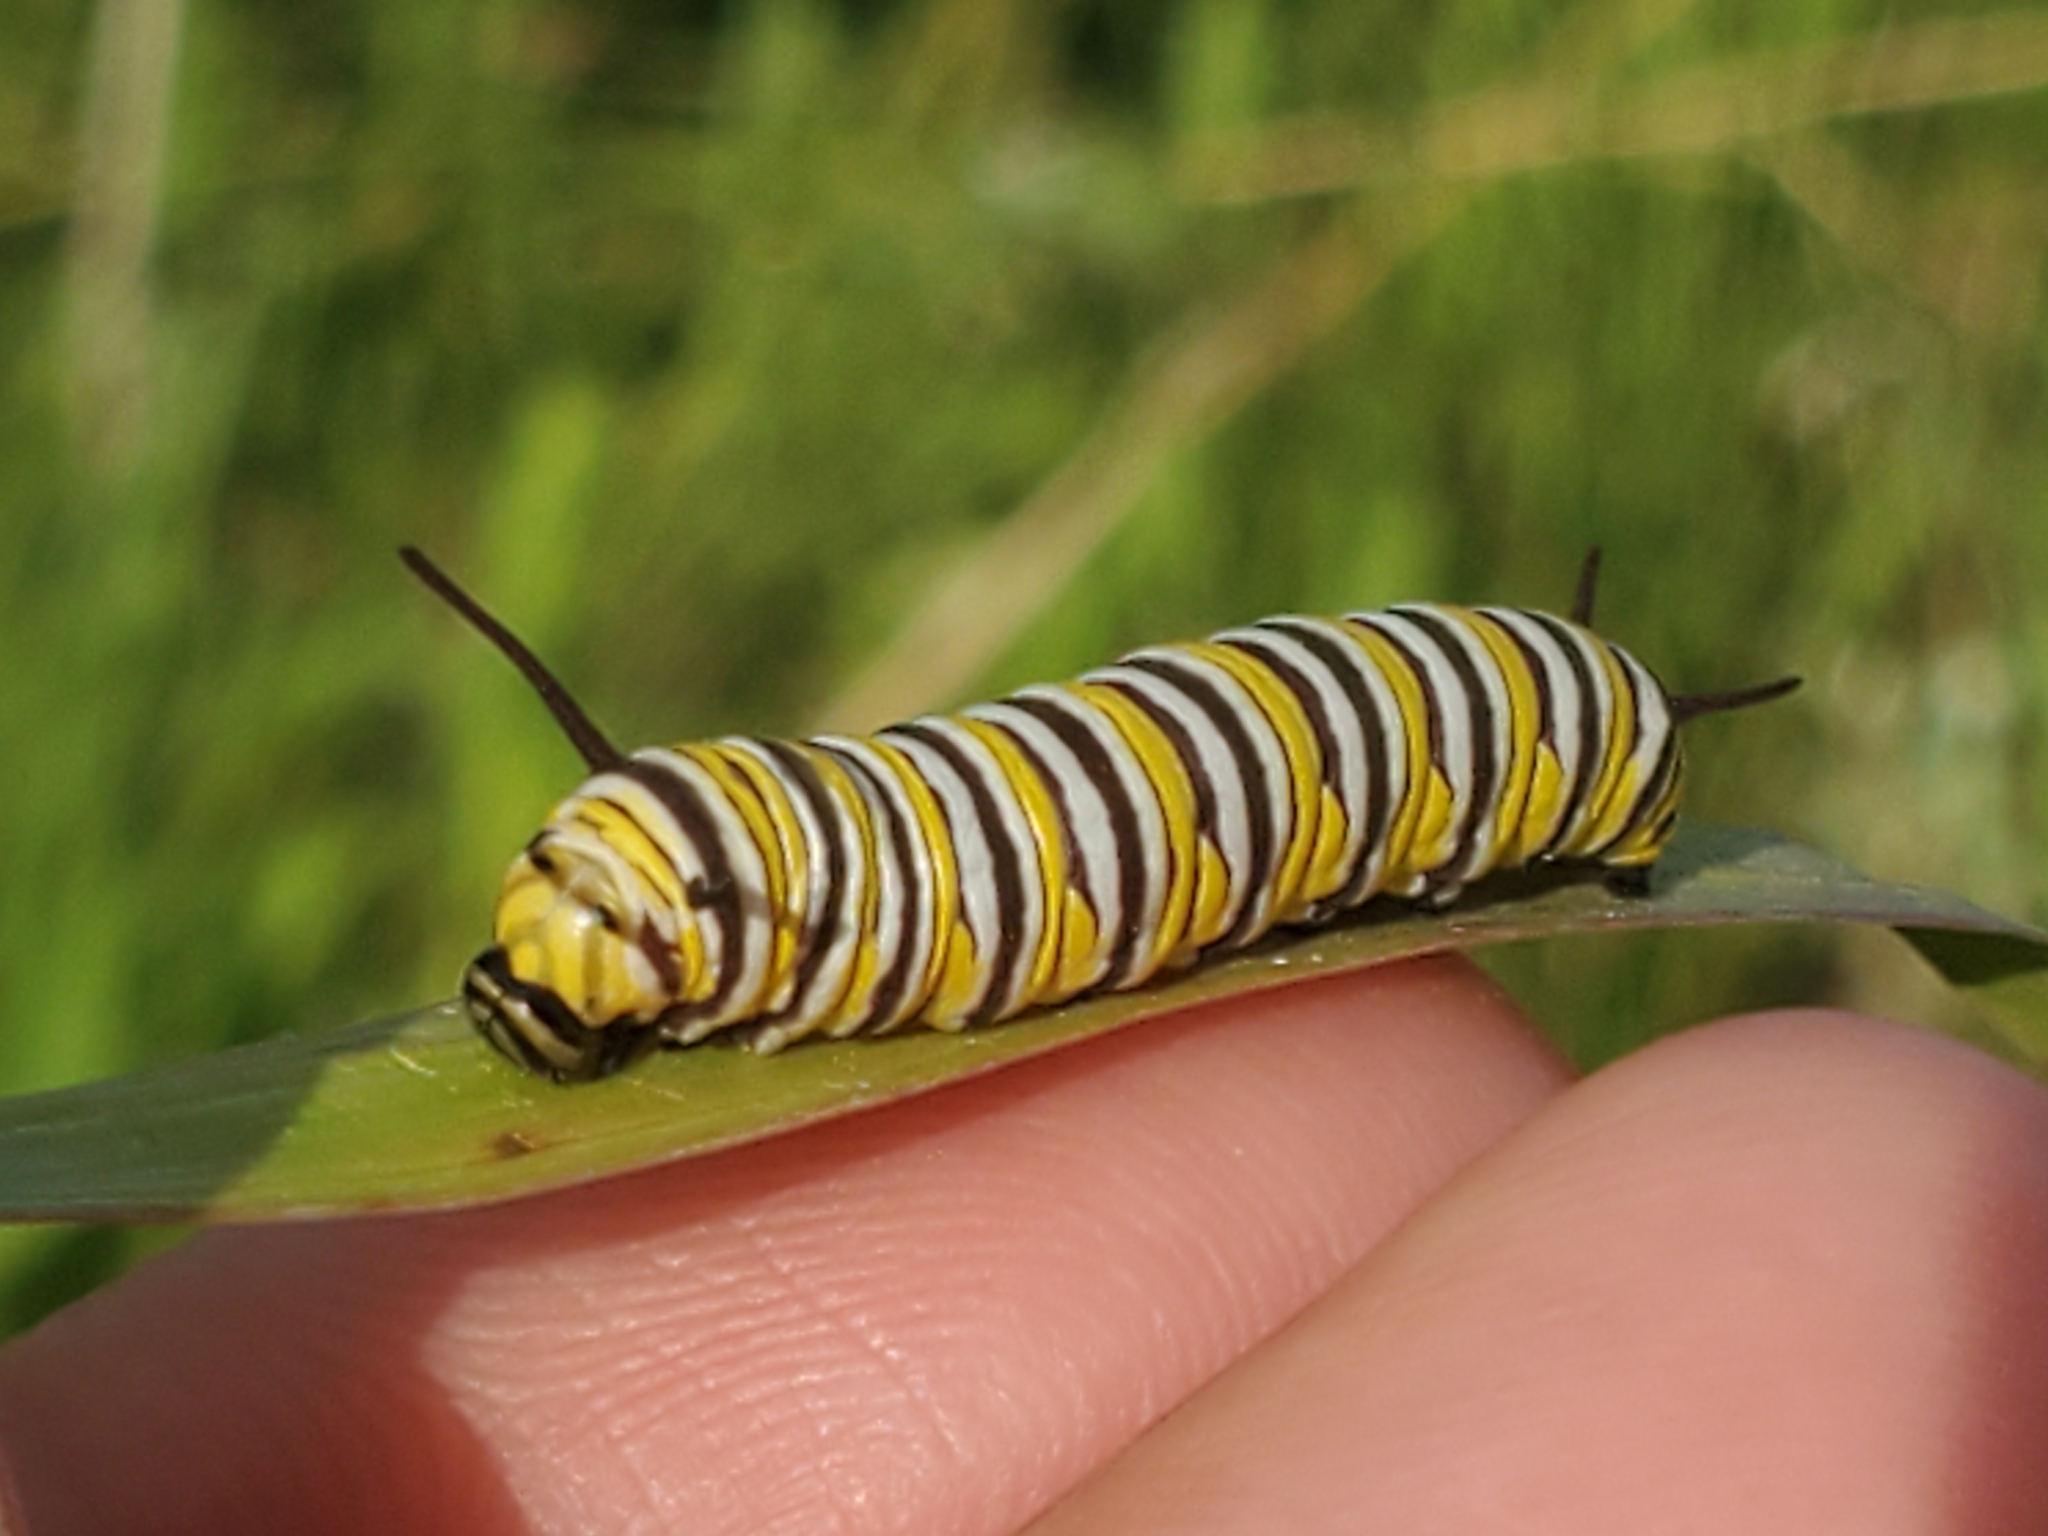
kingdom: Animalia
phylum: Arthropoda
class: Insecta
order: Lepidoptera
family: Nymphalidae
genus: Danaus
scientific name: Danaus plexippus
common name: Monarch
